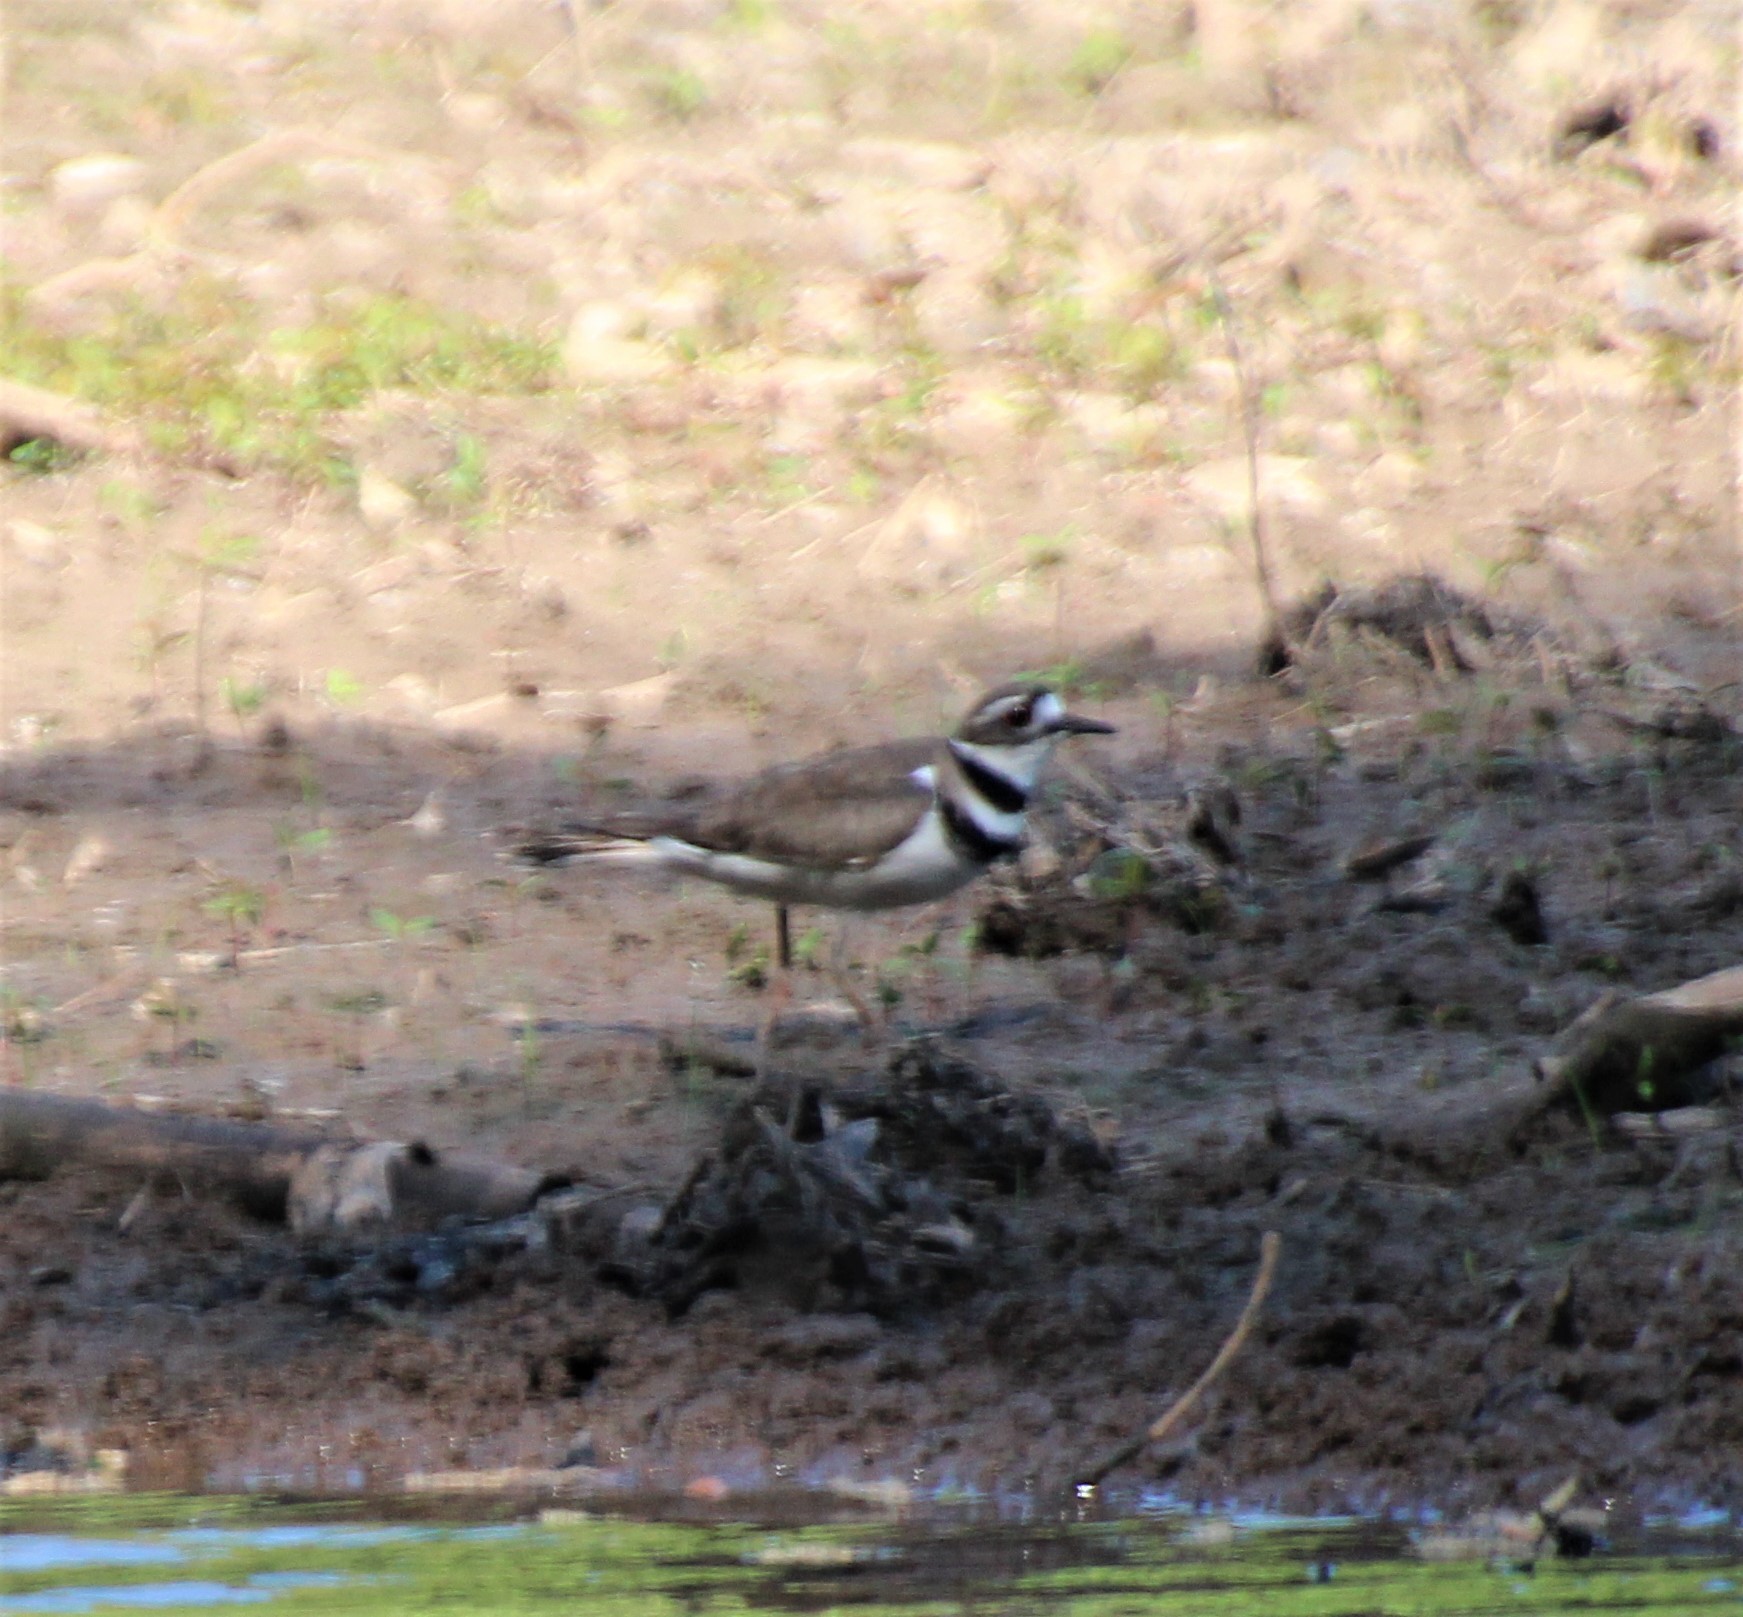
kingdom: Animalia
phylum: Chordata
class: Aves
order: Charadriiformes
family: Charadriidae
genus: Charadrius
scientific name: Charadrius vociferus
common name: Killdeer
